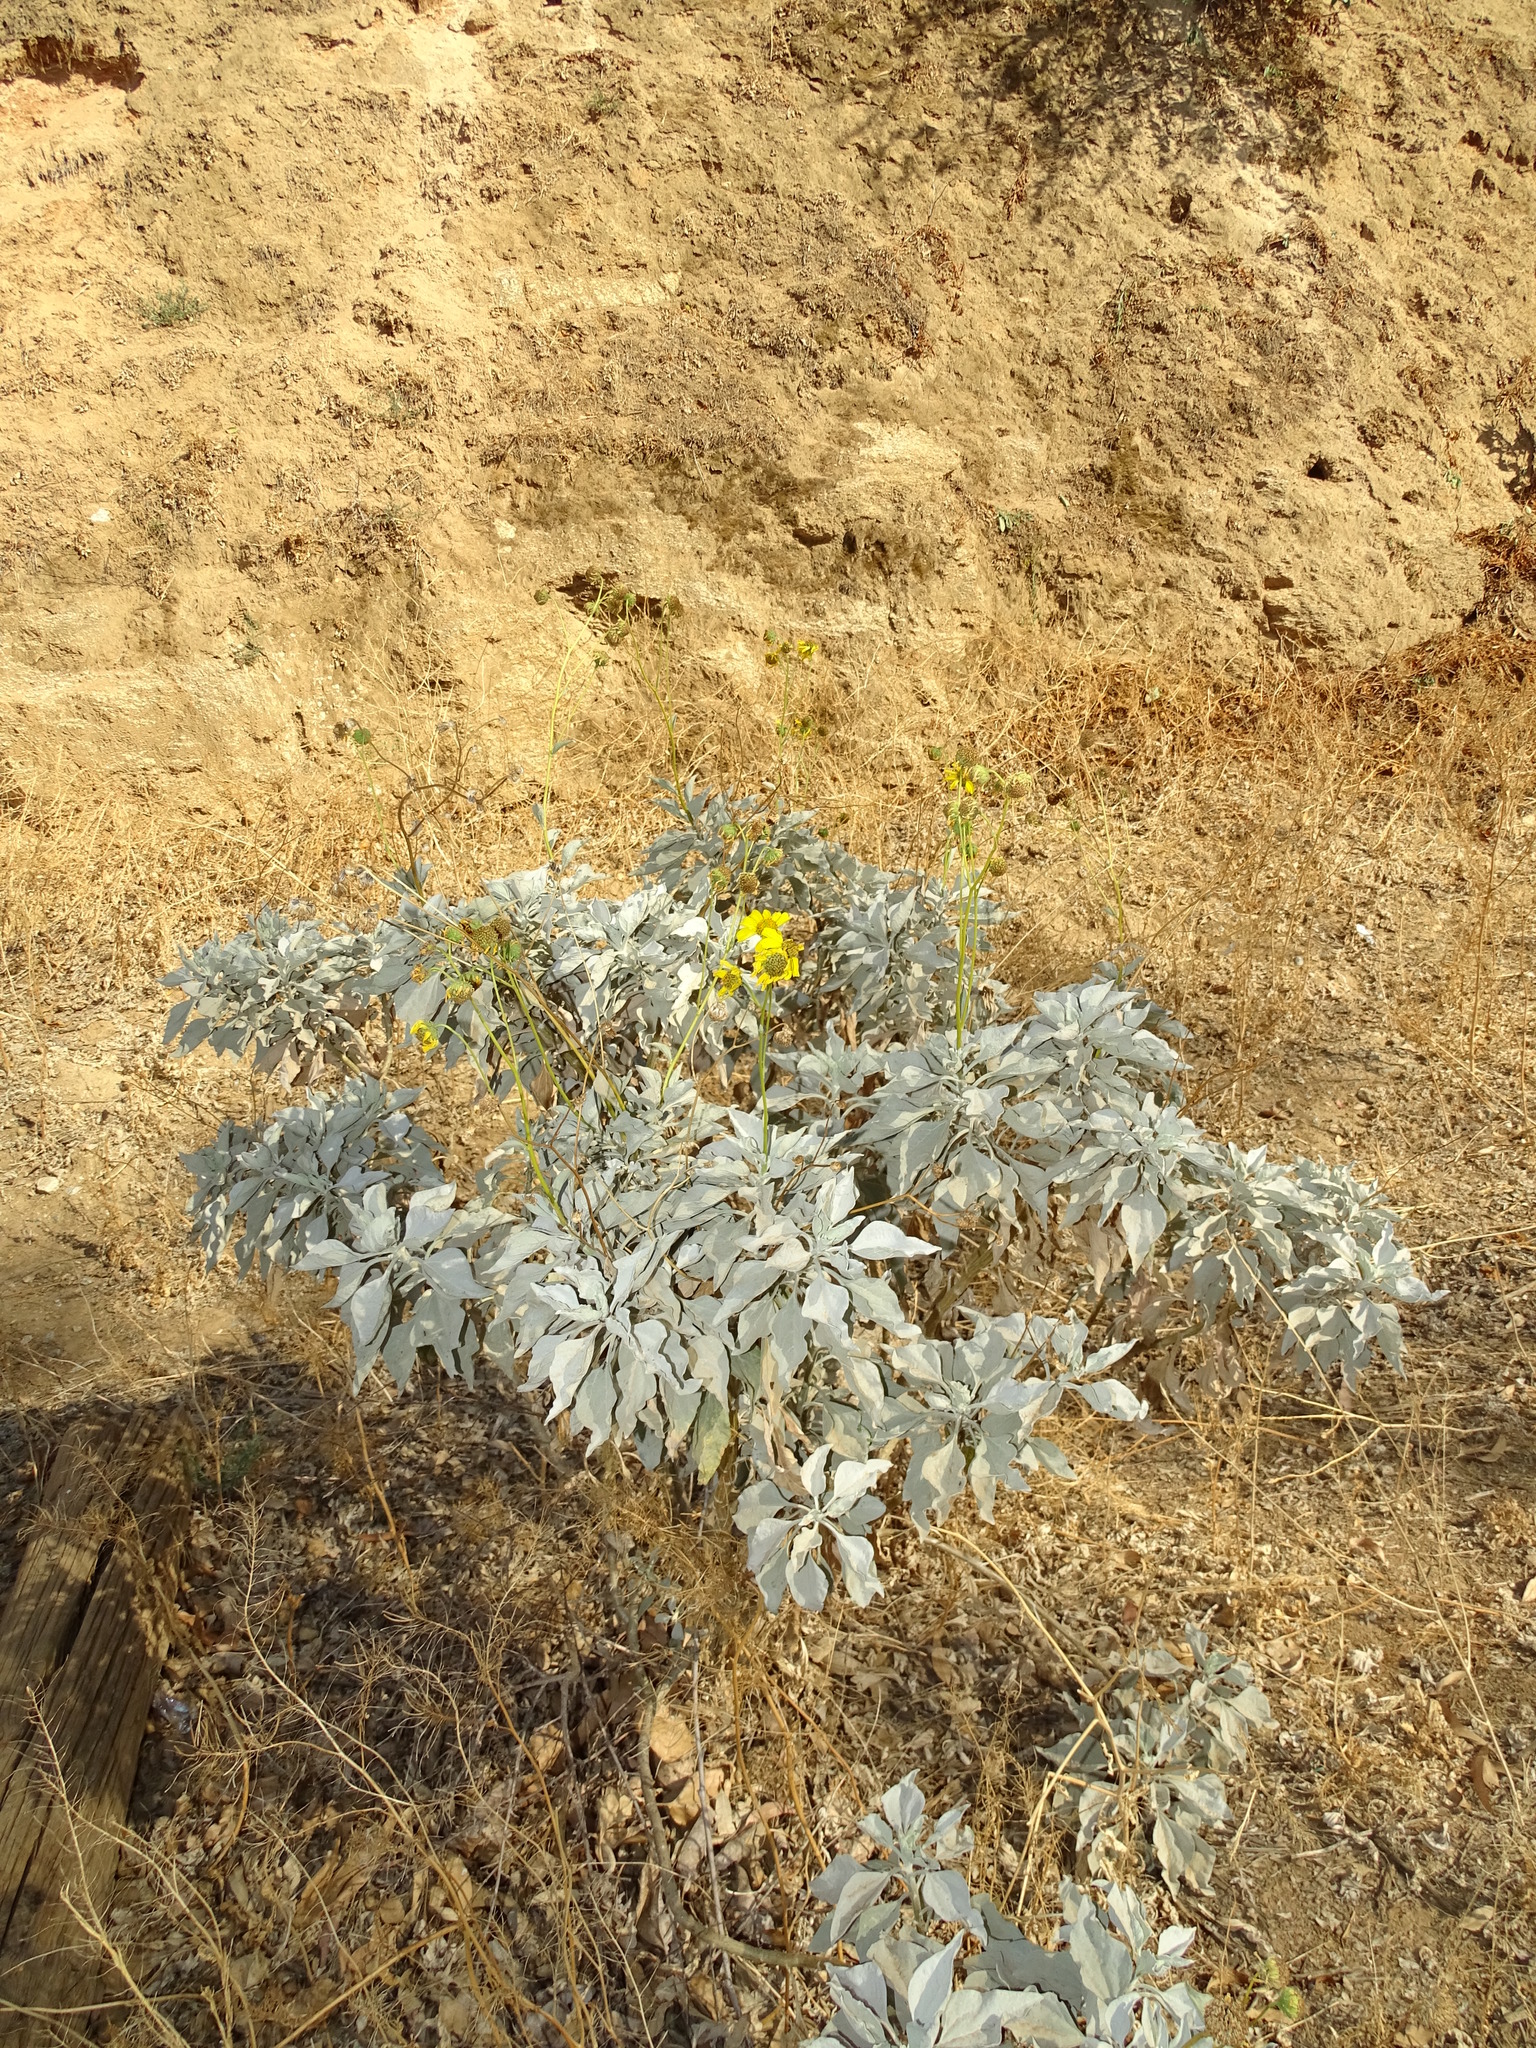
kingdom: Plantae
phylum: Tracheophyta
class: Magnoliopsida
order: Asterales
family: Asteraceae
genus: Encelia
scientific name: Encelia farinosa
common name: Brittlebush
